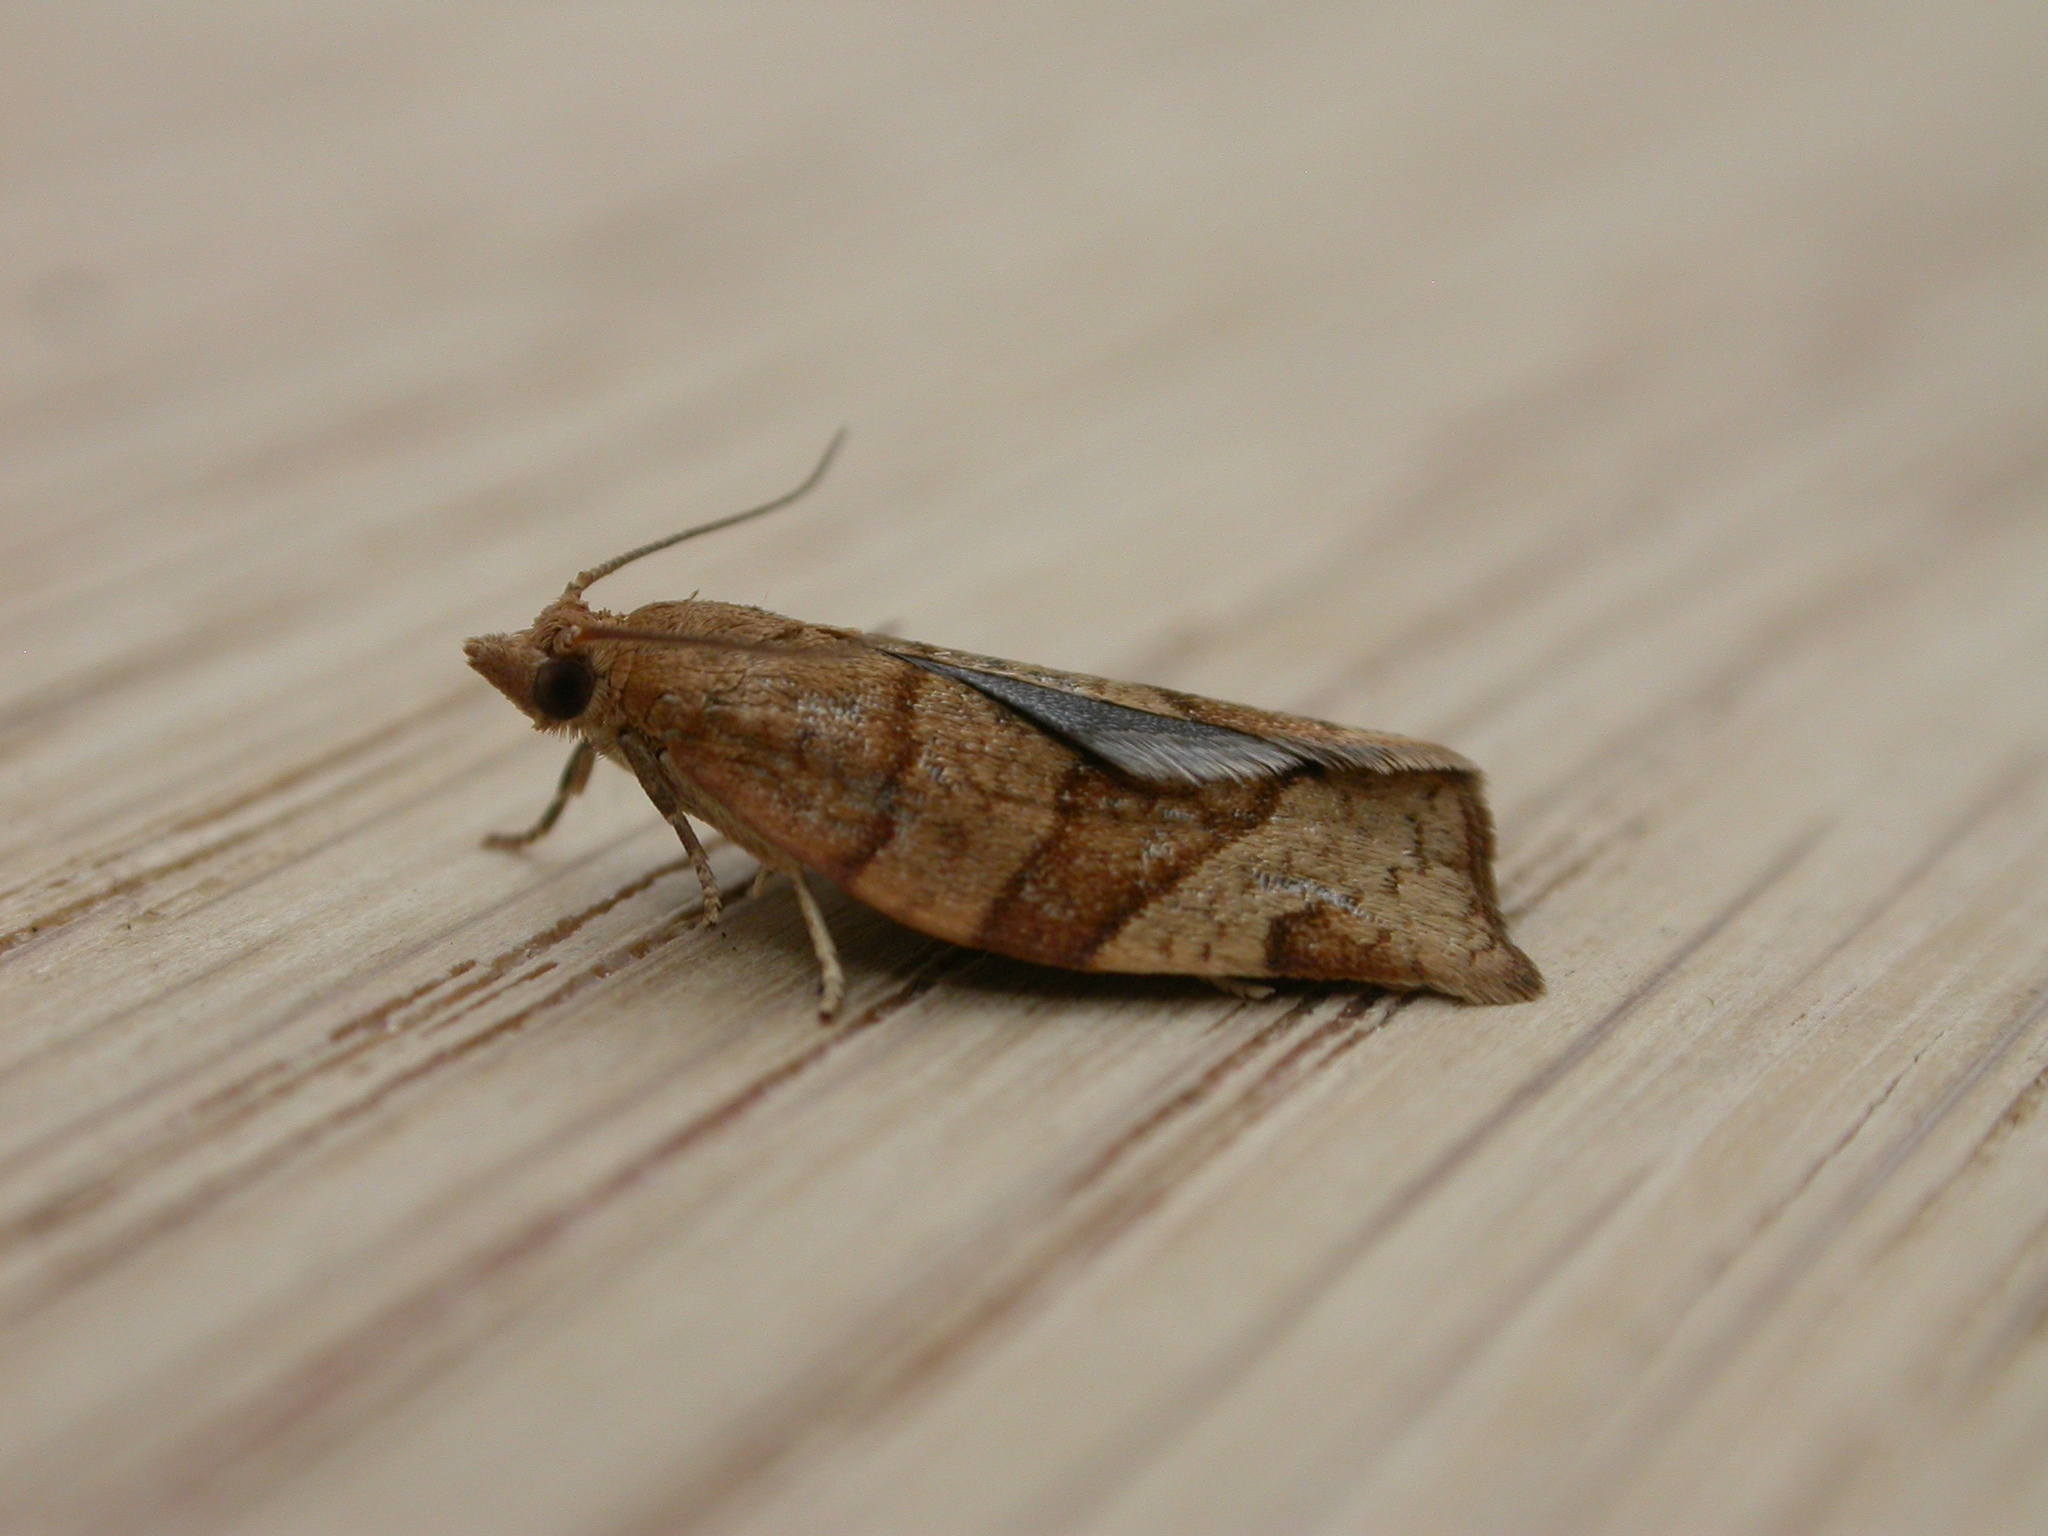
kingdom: Animalia
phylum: Arthropoda
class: Insecta
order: Lepidoptera
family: Tortricidae
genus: Pandemis
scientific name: Pandemis cerasana
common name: Barred fruit-tree tortrix
